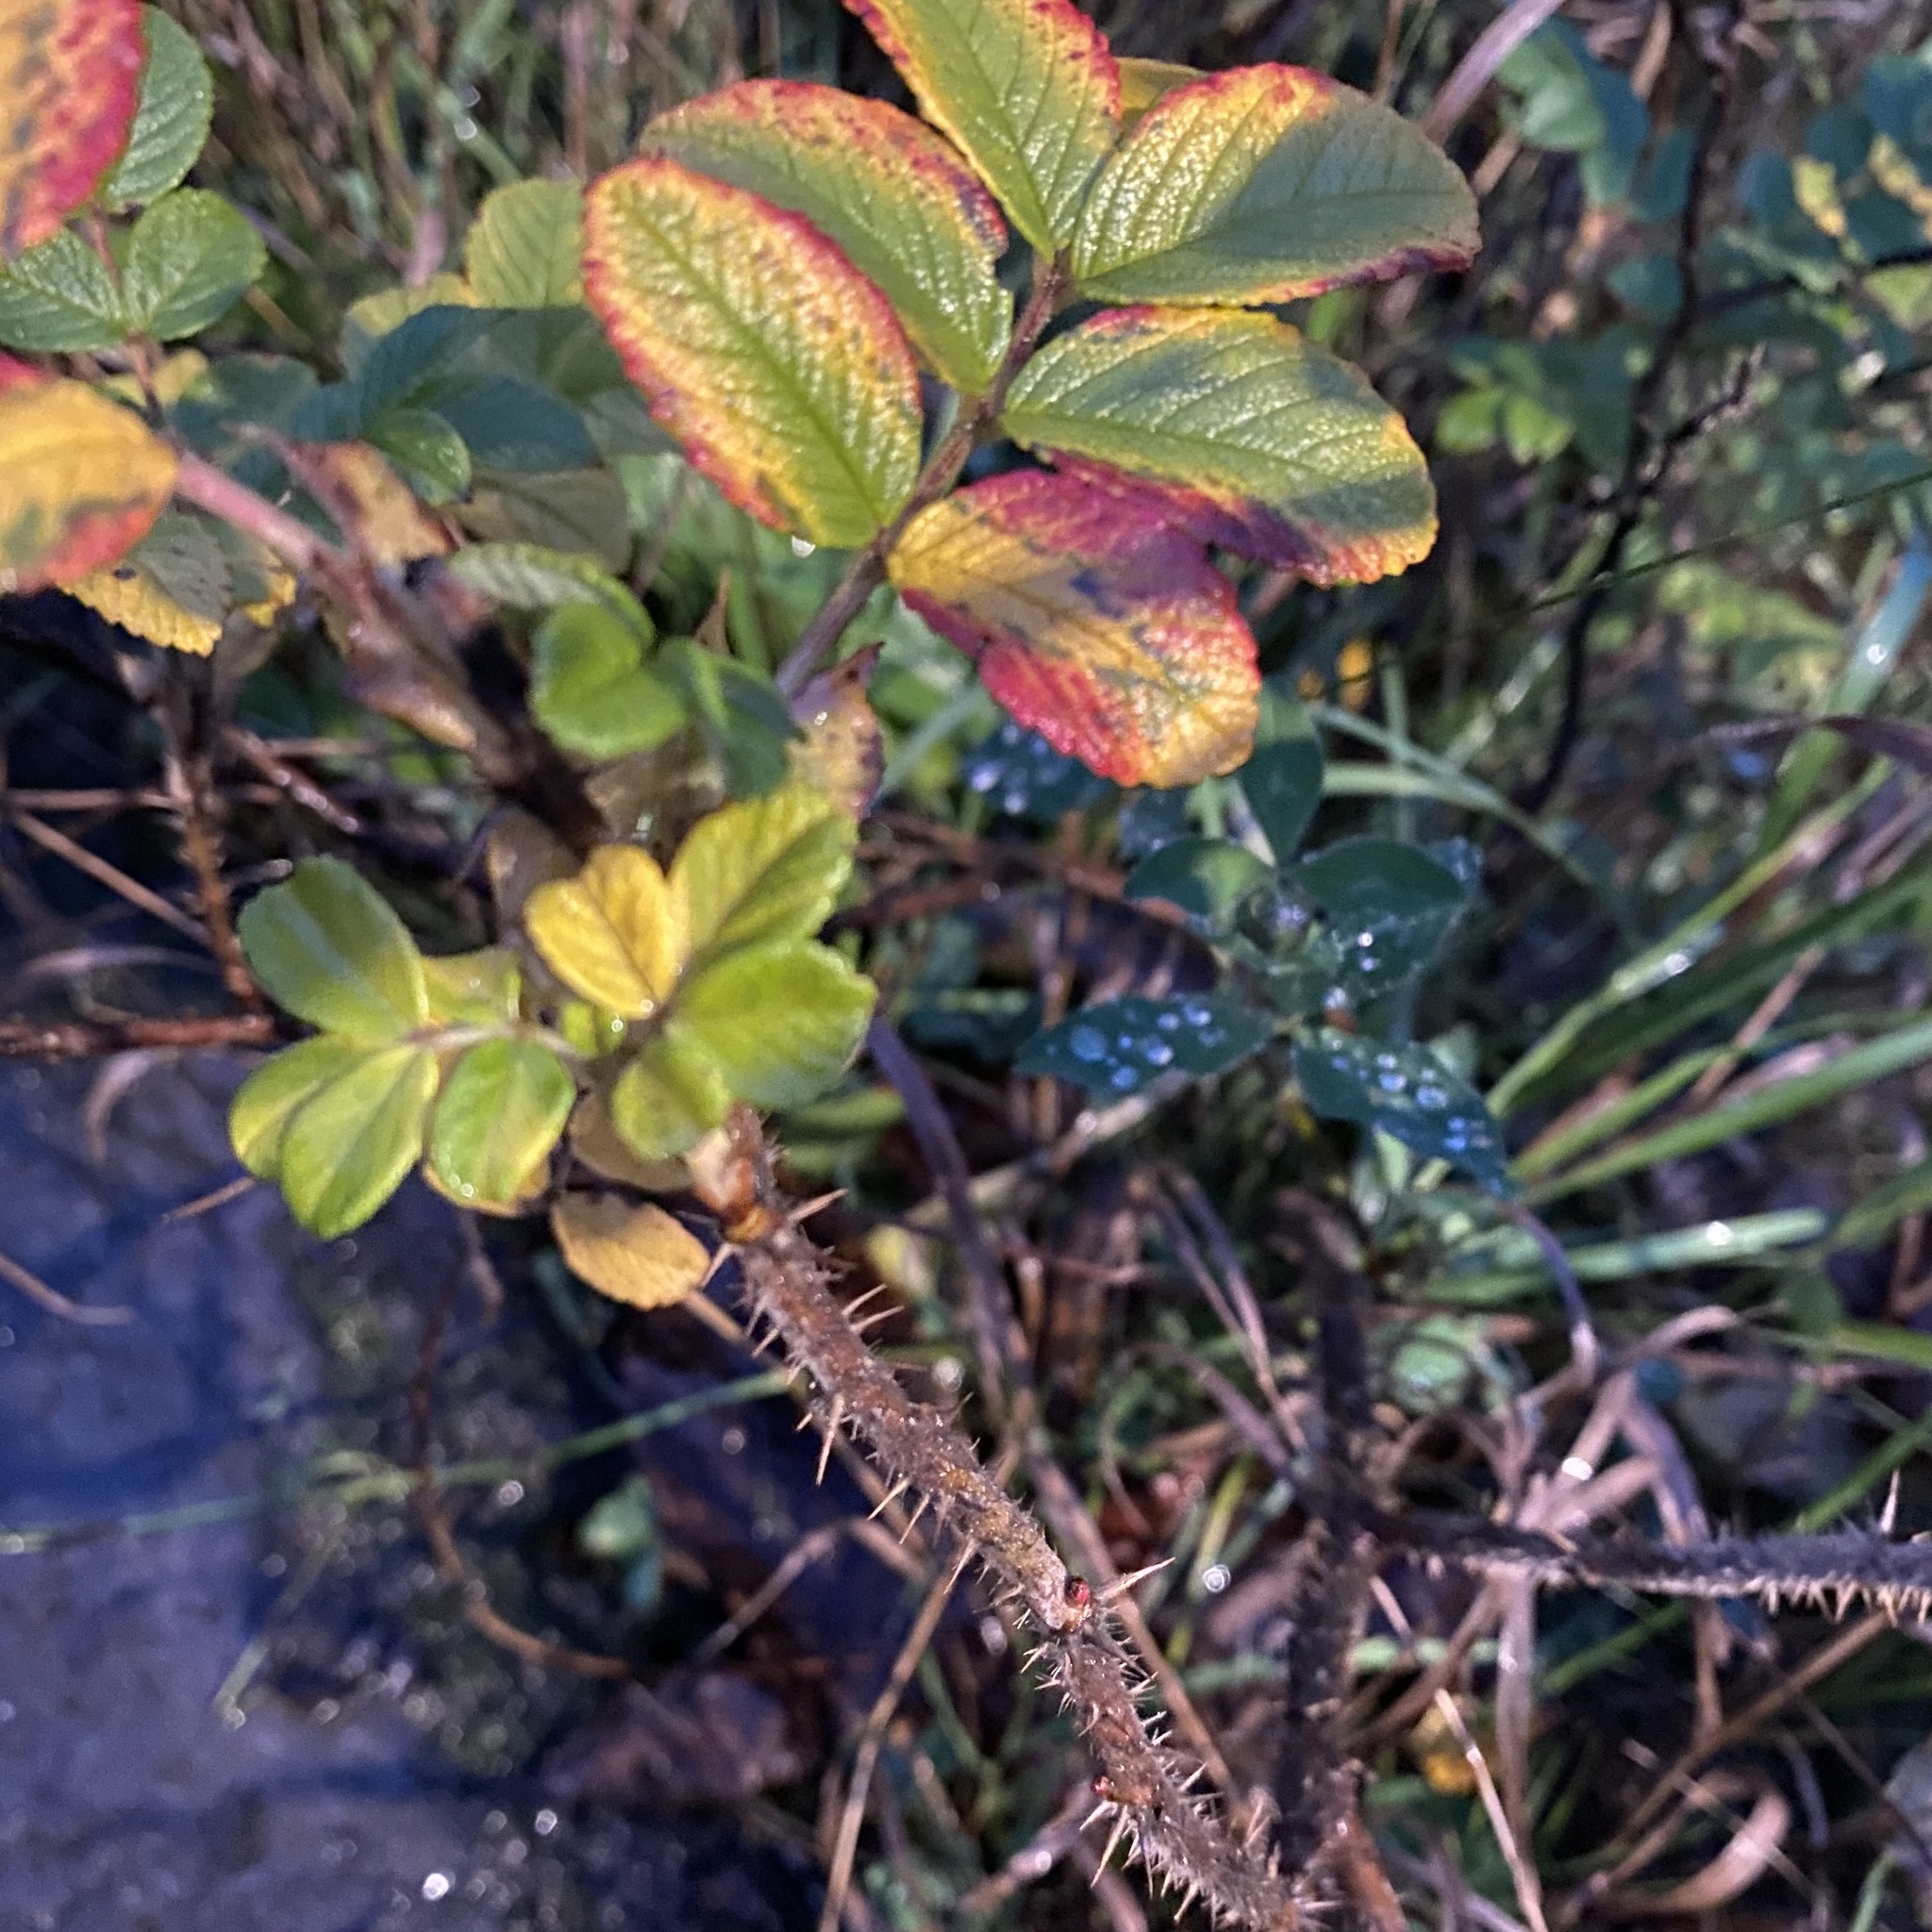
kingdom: Plantae
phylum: Tracheophyta
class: Magnoliopsida
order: Rosales
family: Rosaceae
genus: Rosa
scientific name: Rosa rugosa
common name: Japanese rose
